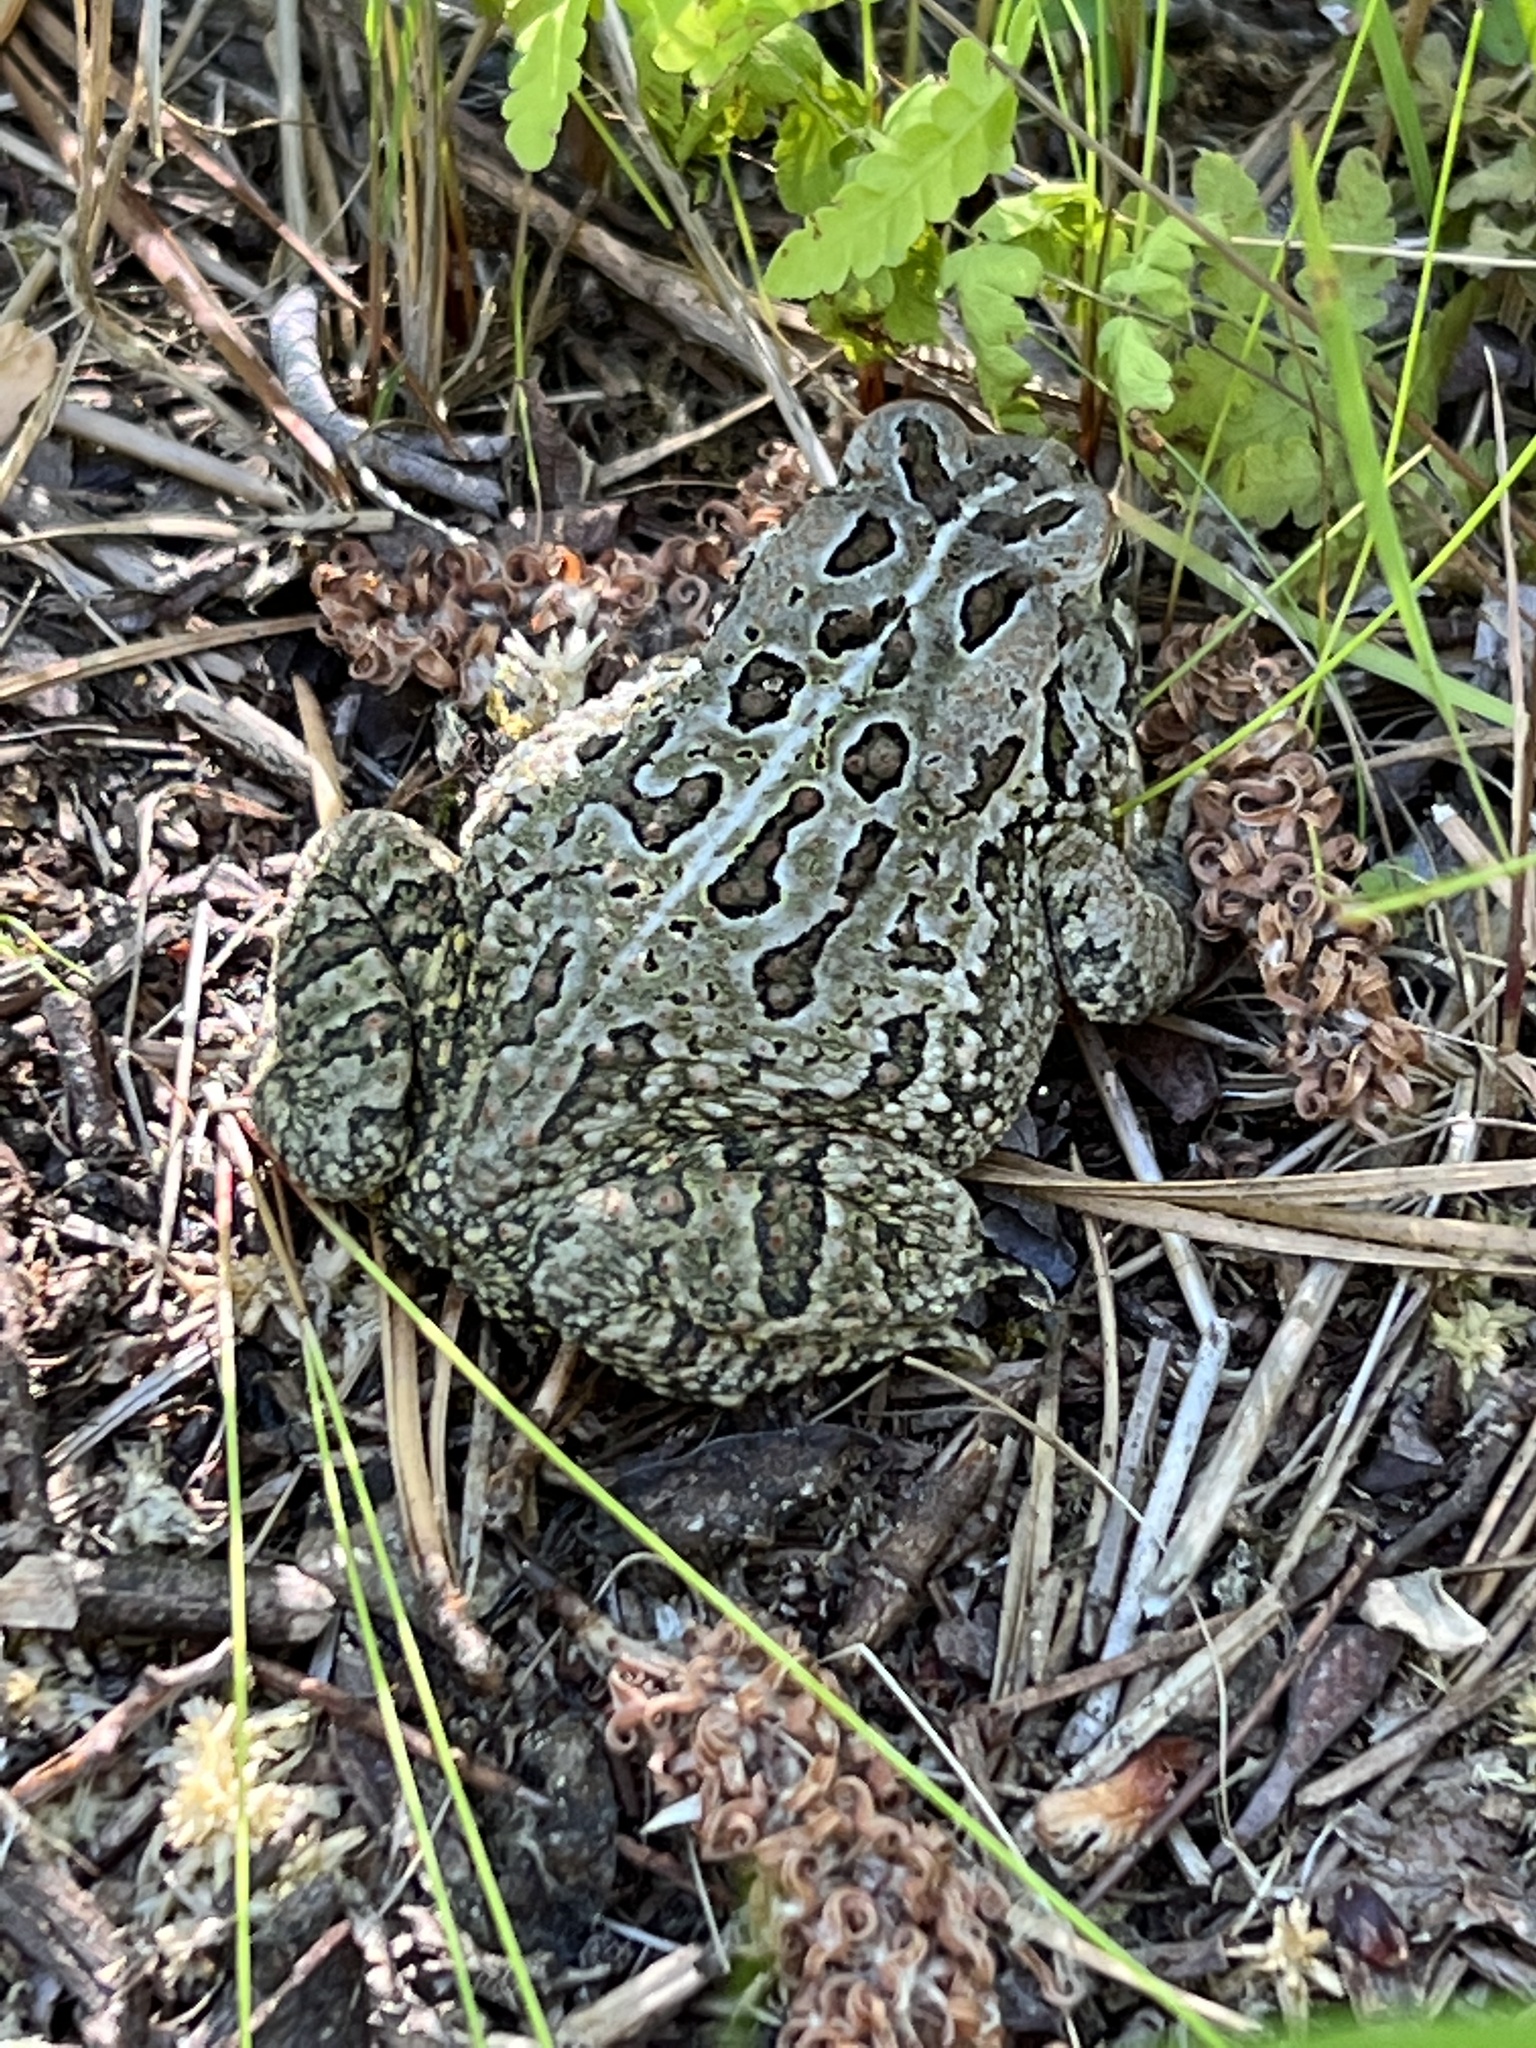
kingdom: Animalia
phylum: Chordata
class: Amphibia
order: Anura
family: Bufonidae
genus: Anaxyrus
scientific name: Anaxyrus fowleri
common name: Fowler's toad
